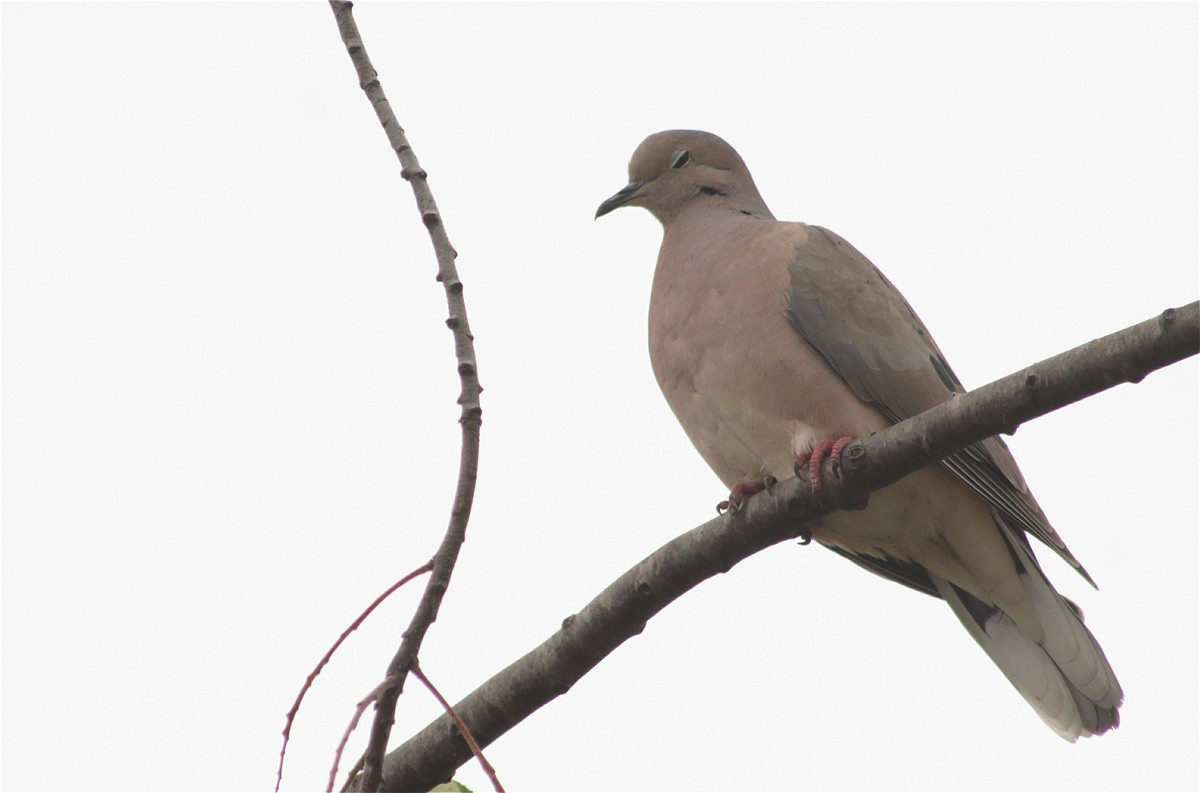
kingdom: Animalia
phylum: Chordata
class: Aves
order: Columbiformes
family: Columbidae
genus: Zenaida
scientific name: Zenaida auriculata
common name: Eared dove
